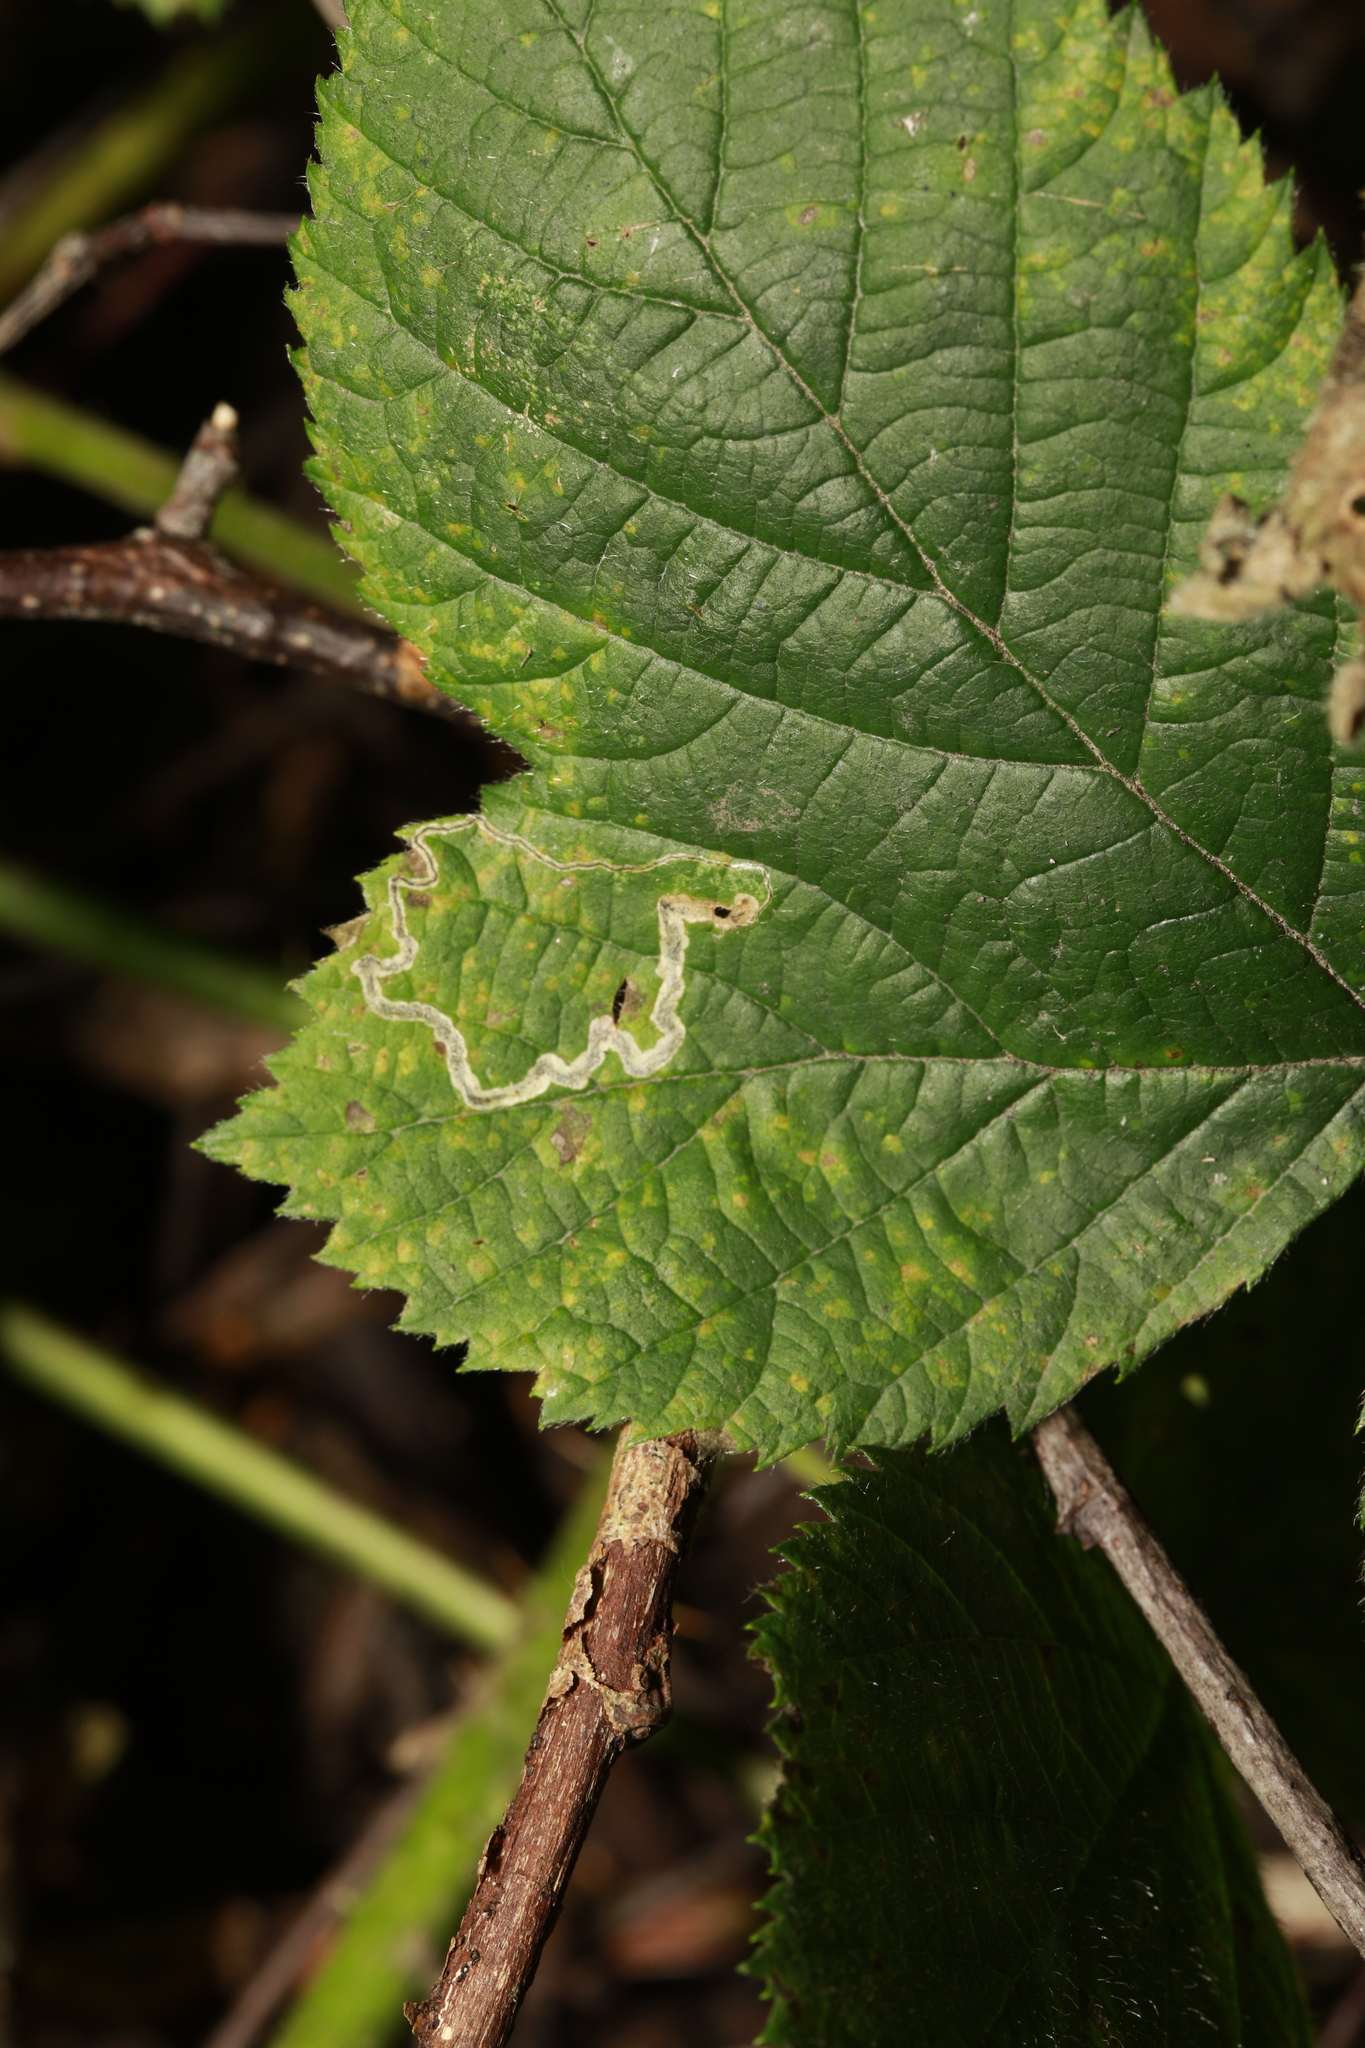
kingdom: Animalia
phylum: Arthropoda
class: Insecta
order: Lepidoptera
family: Nepticulidae
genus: Stigmella
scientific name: Stigmella aurella
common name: Golden pigmy
